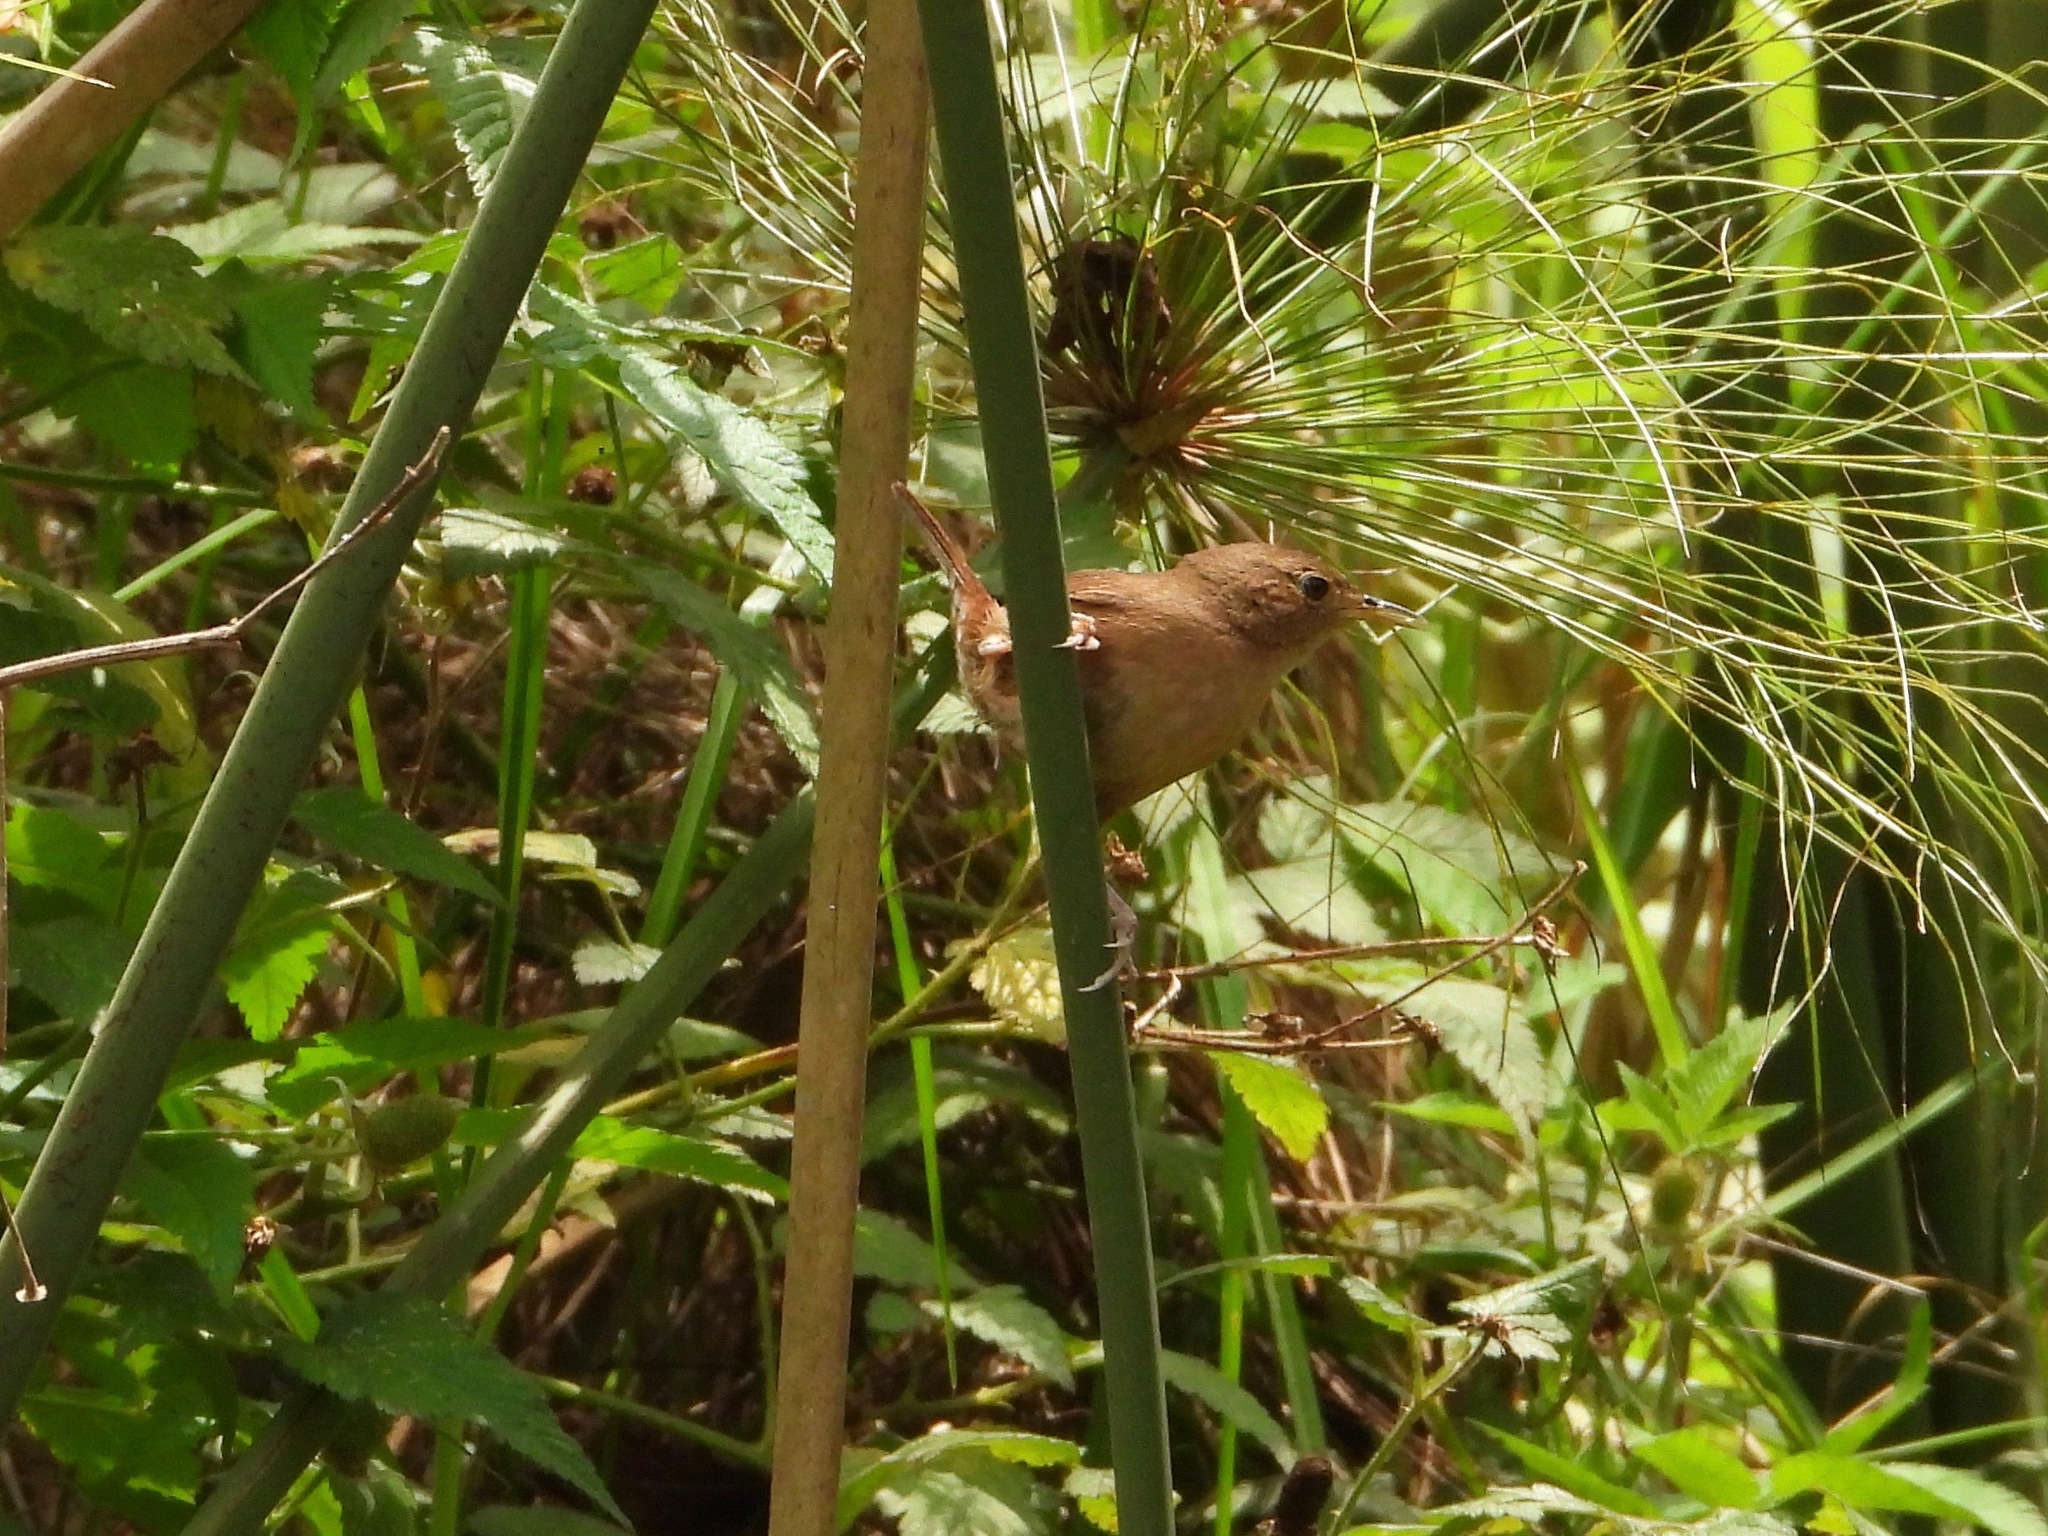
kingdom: Animalia
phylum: Chordata
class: Aves
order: Passeriformes
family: Troglodytidae
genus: Troglodytes
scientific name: Troglodytes aedon
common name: House wren
